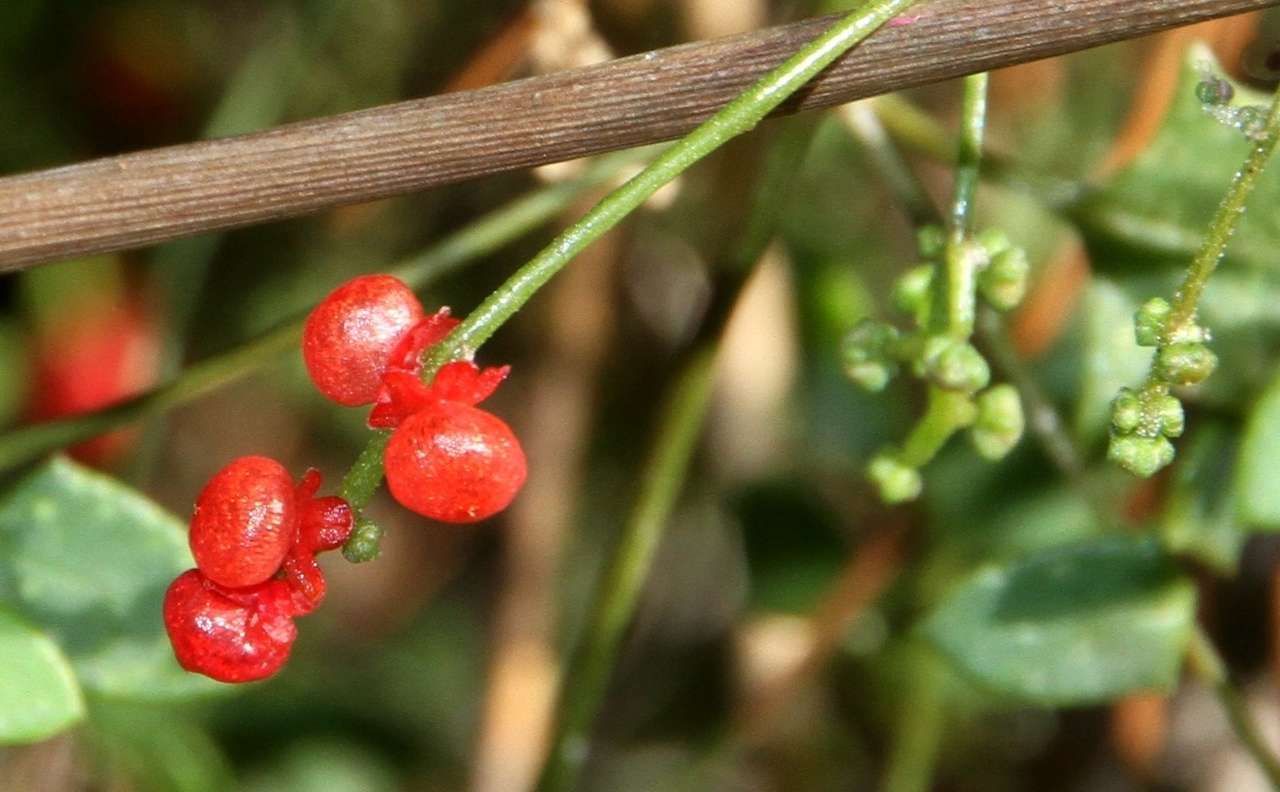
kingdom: Plantae
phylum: Tracheophyta
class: Magnoliopsida
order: Caryophyllales
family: Amaranthaceae
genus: Chenopodium
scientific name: Chenopodium nutans
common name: Climbing-saltbush
